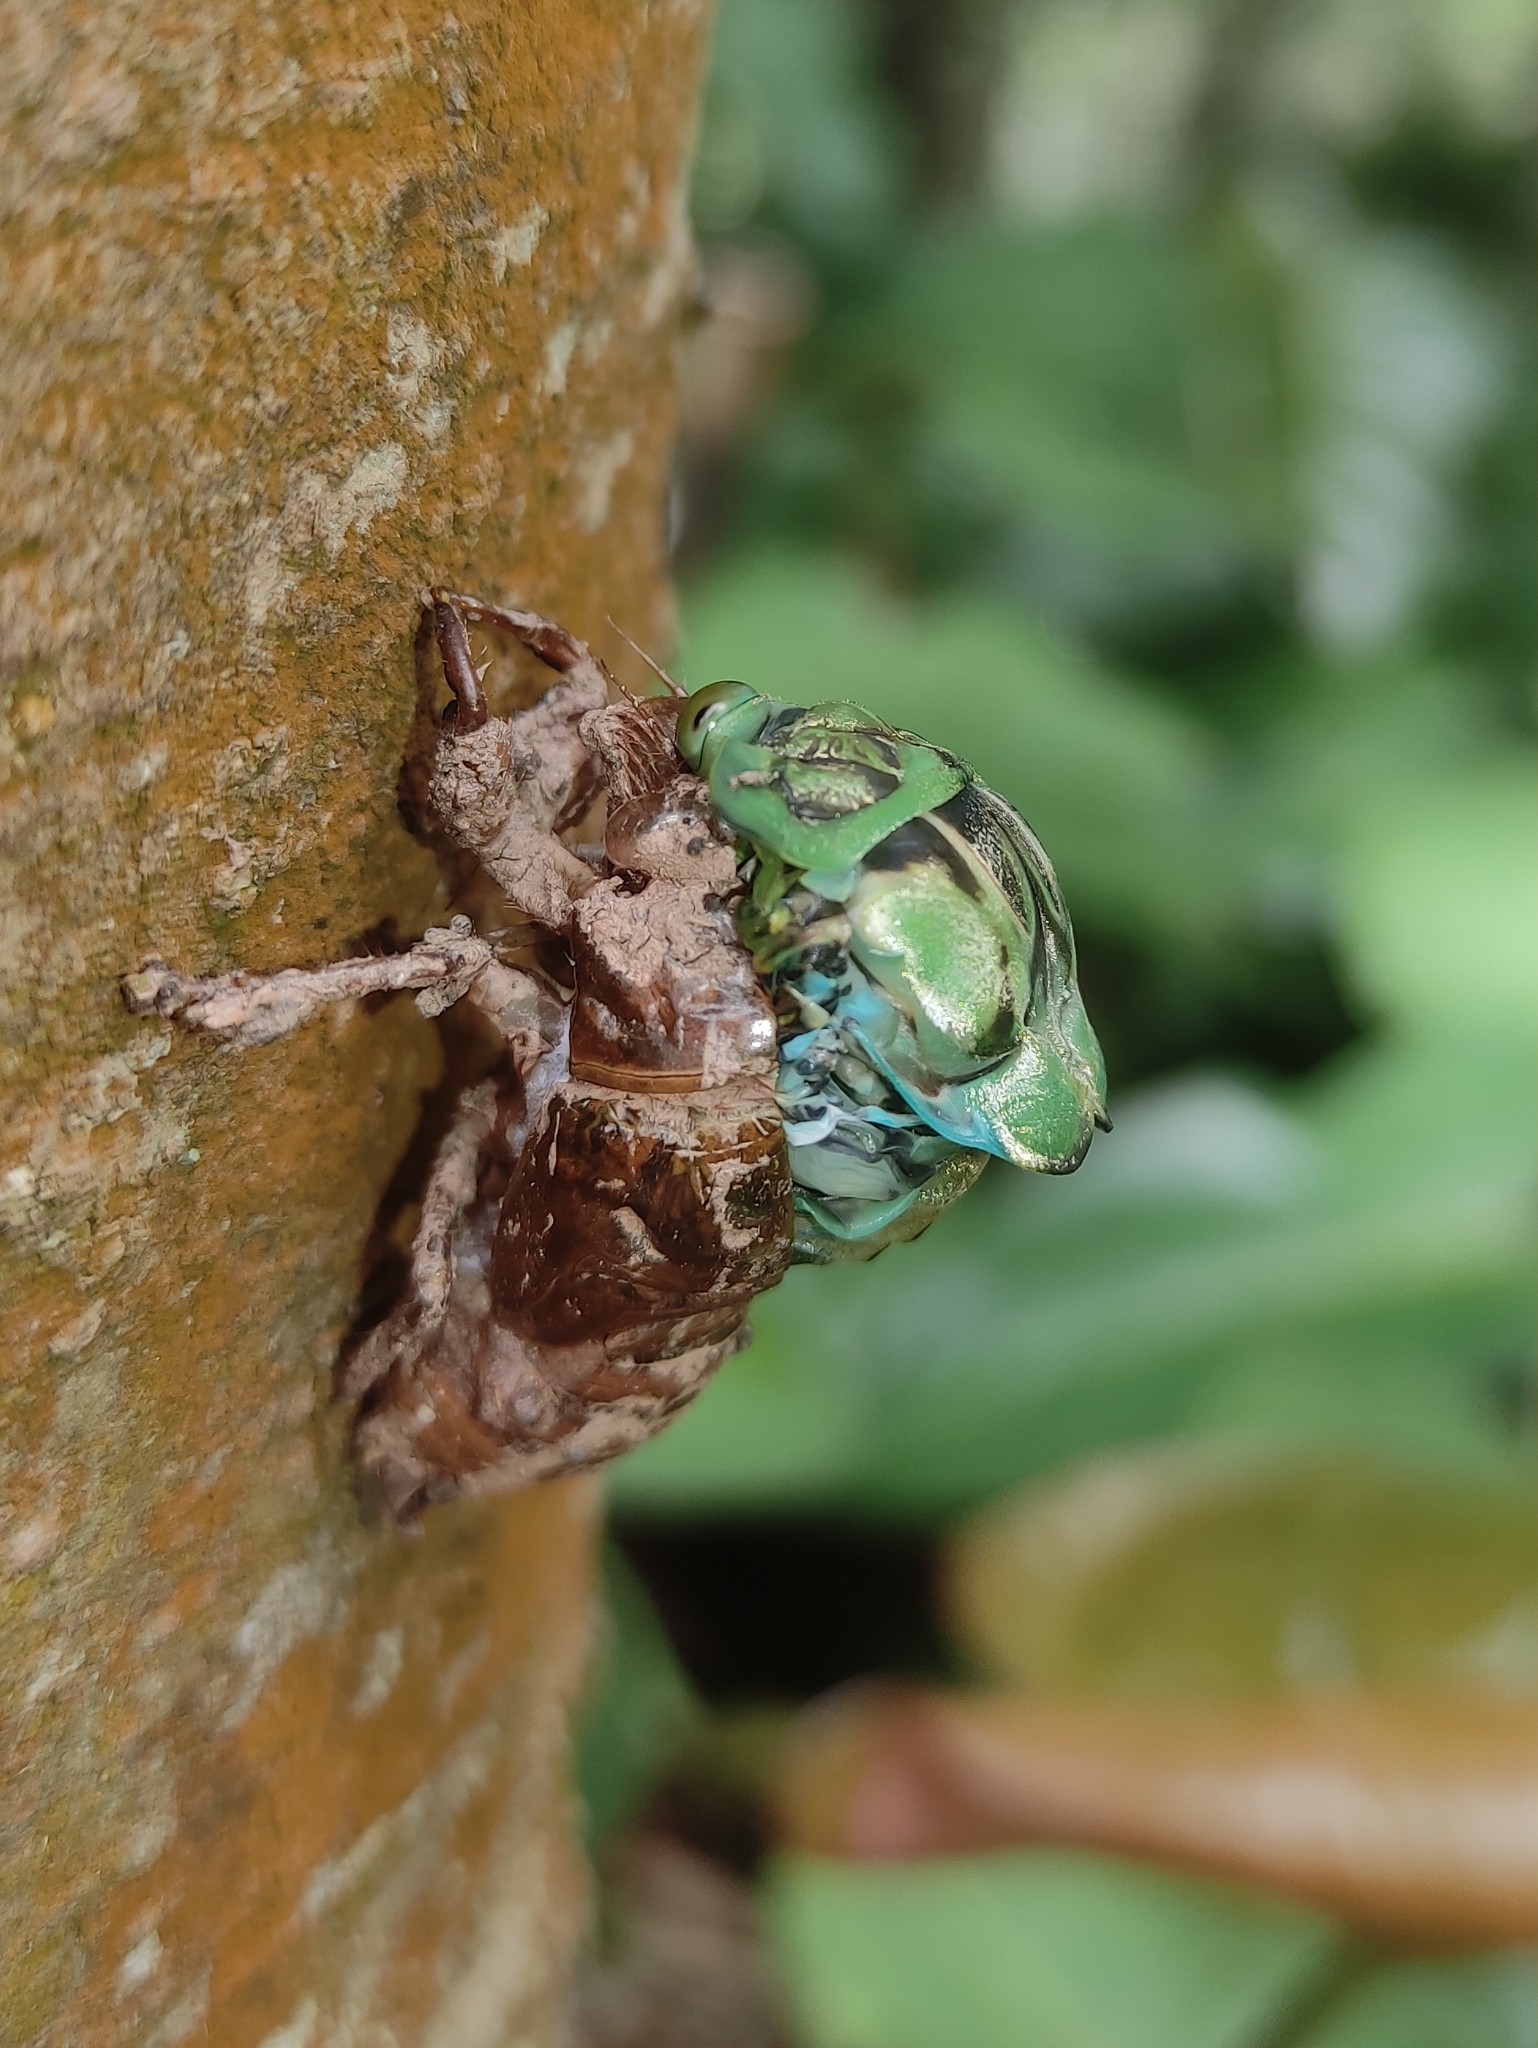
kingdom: Animalia
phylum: Arthropoda
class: Insecta
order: Hemiptera
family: Cicadidae
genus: Zammara
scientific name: Zammara tympanum
